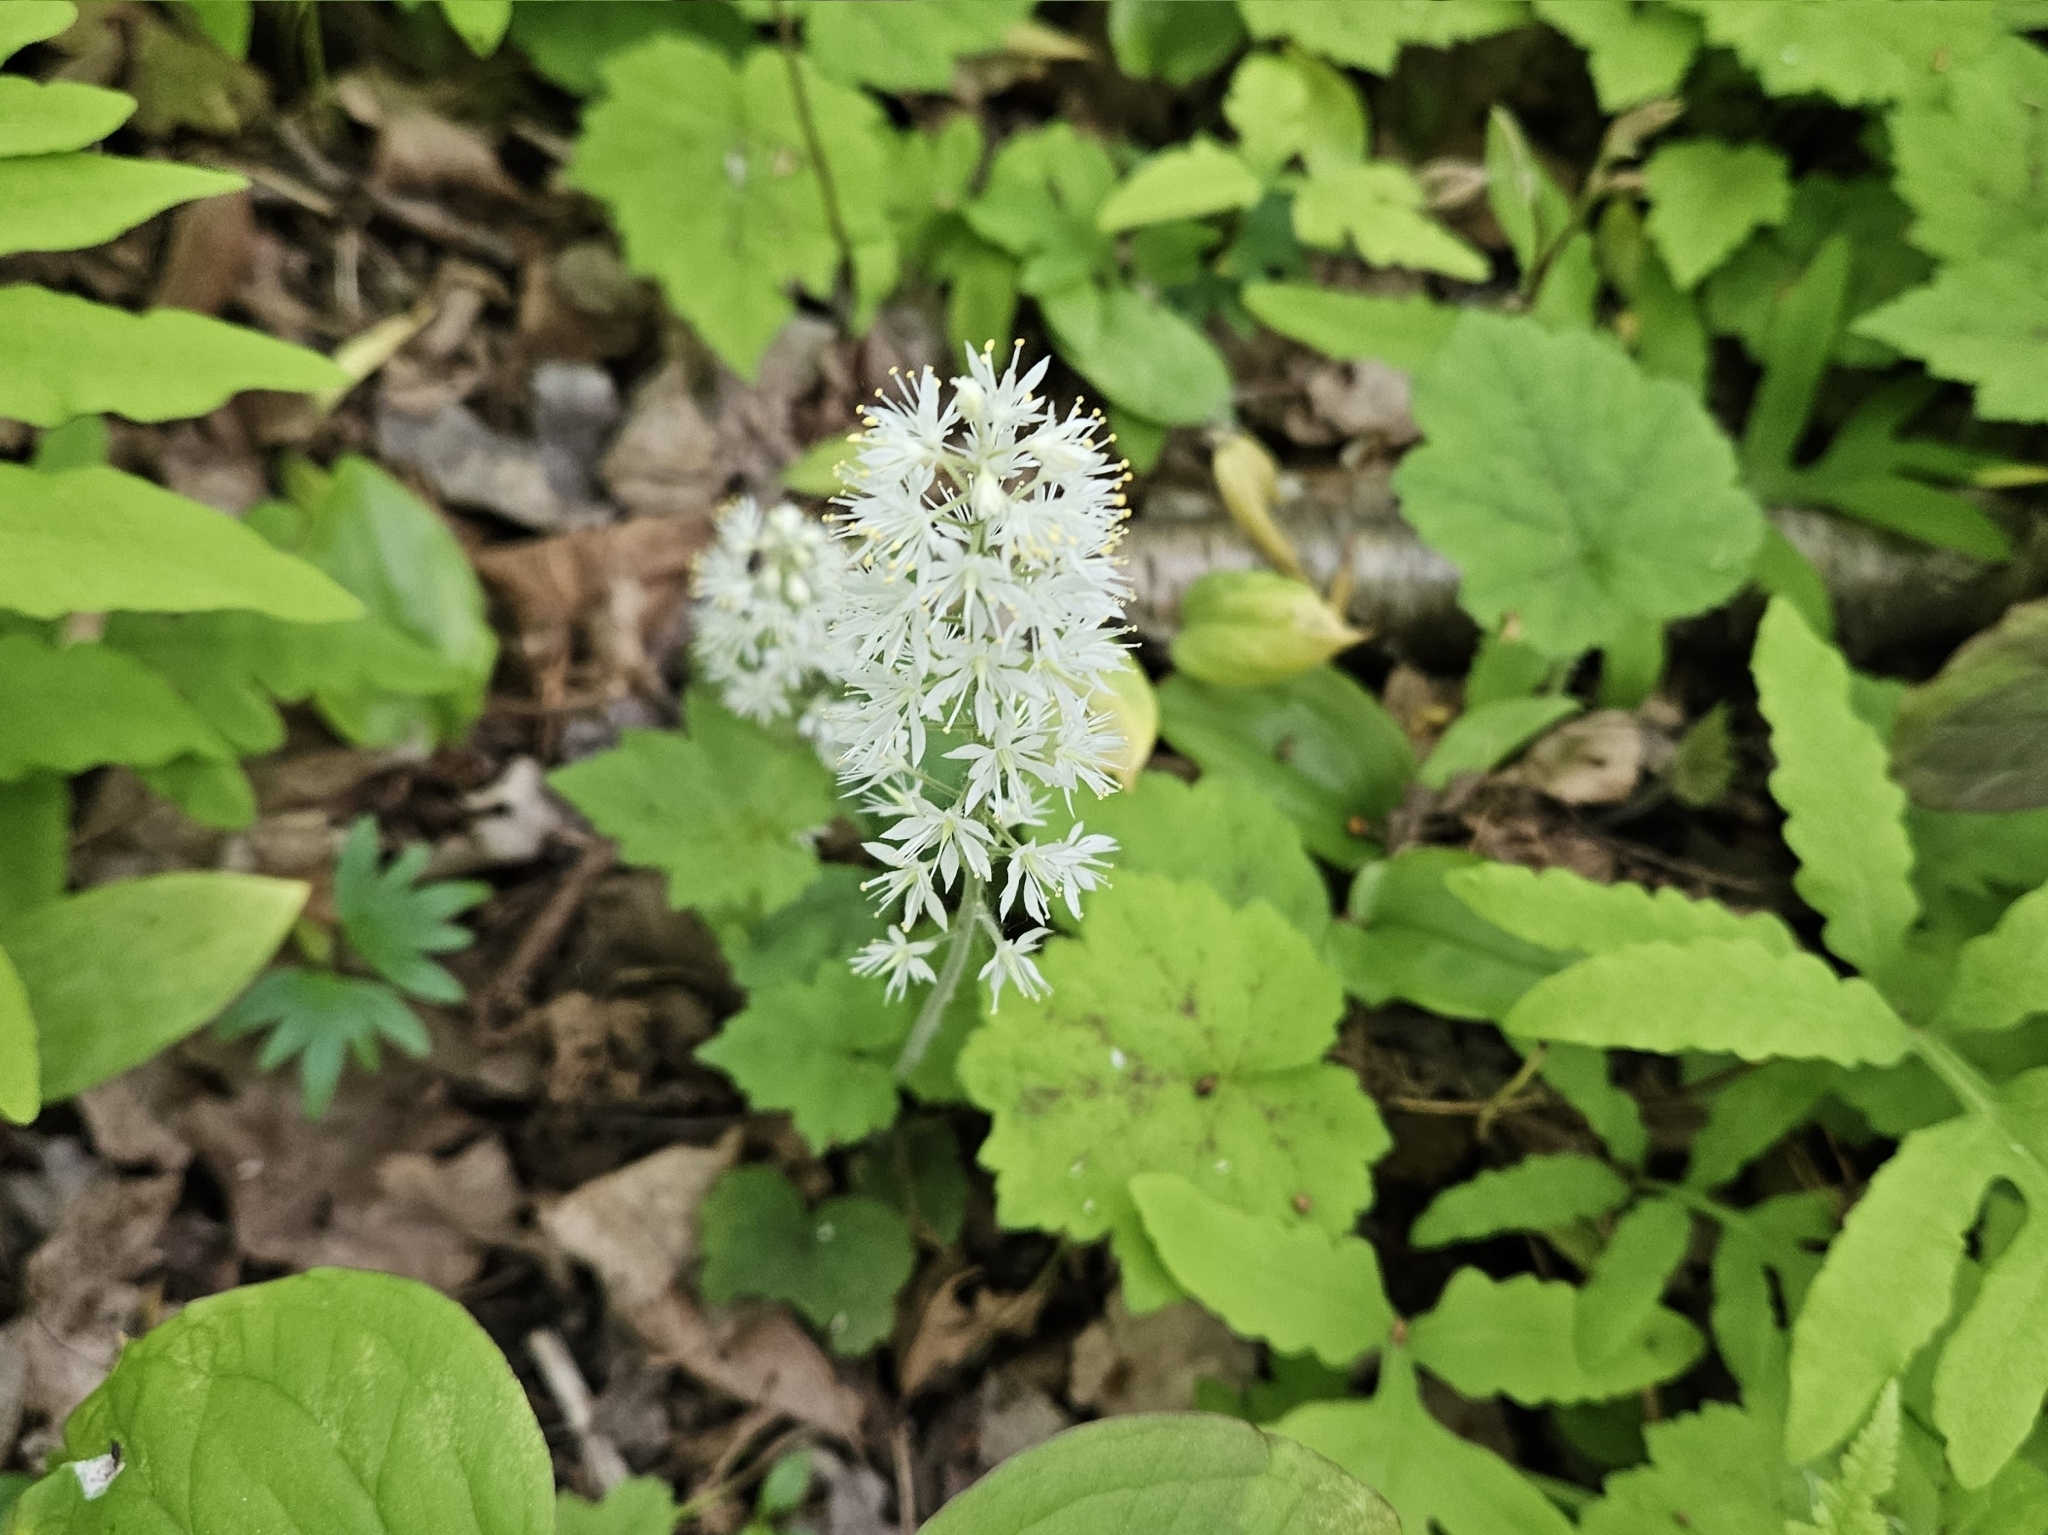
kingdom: Plantae
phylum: Tracheophyta
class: Magnoliopsida
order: Saxifragales
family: Saxifragaceae
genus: Tiarella
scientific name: Tiarella stolonifera
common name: Stoloniferous foamflower
